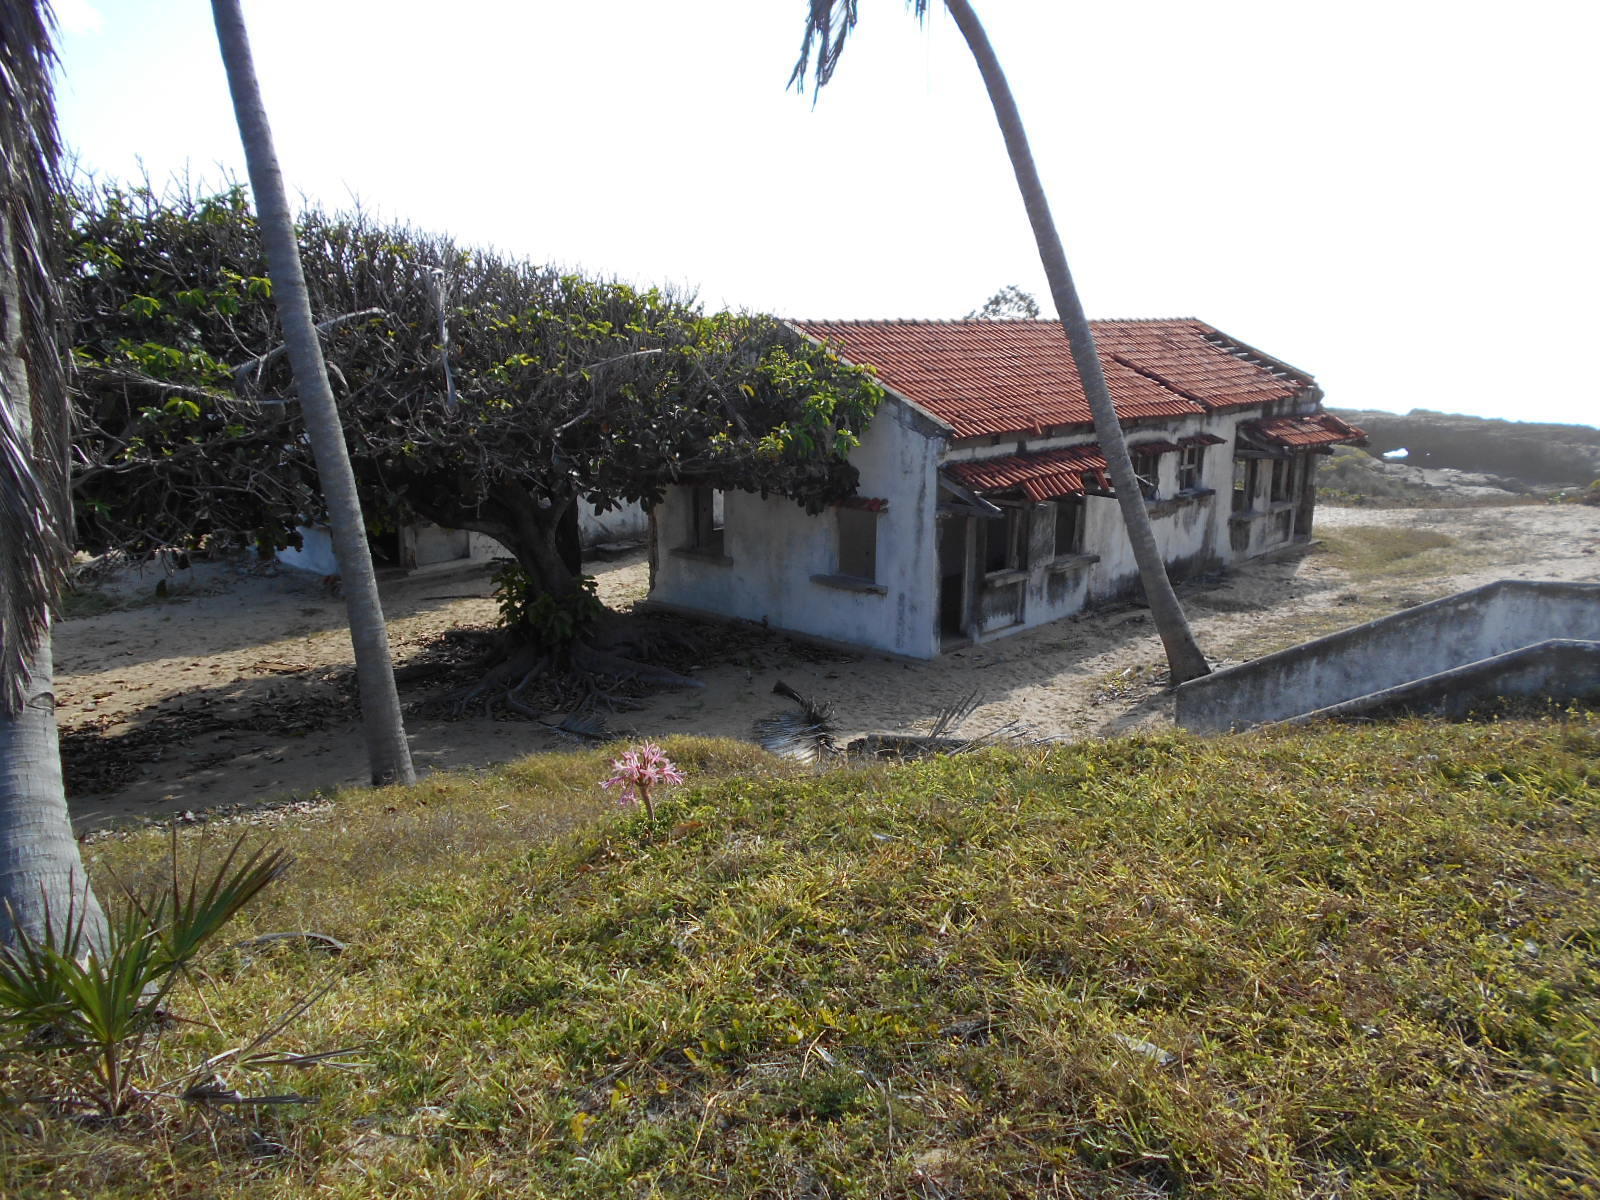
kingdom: Plantae
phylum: Tracheophyta
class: Liliopsida
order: Asparagales
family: Amaryllidaceae
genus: Crinum
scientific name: Crinum stuhlmannii
